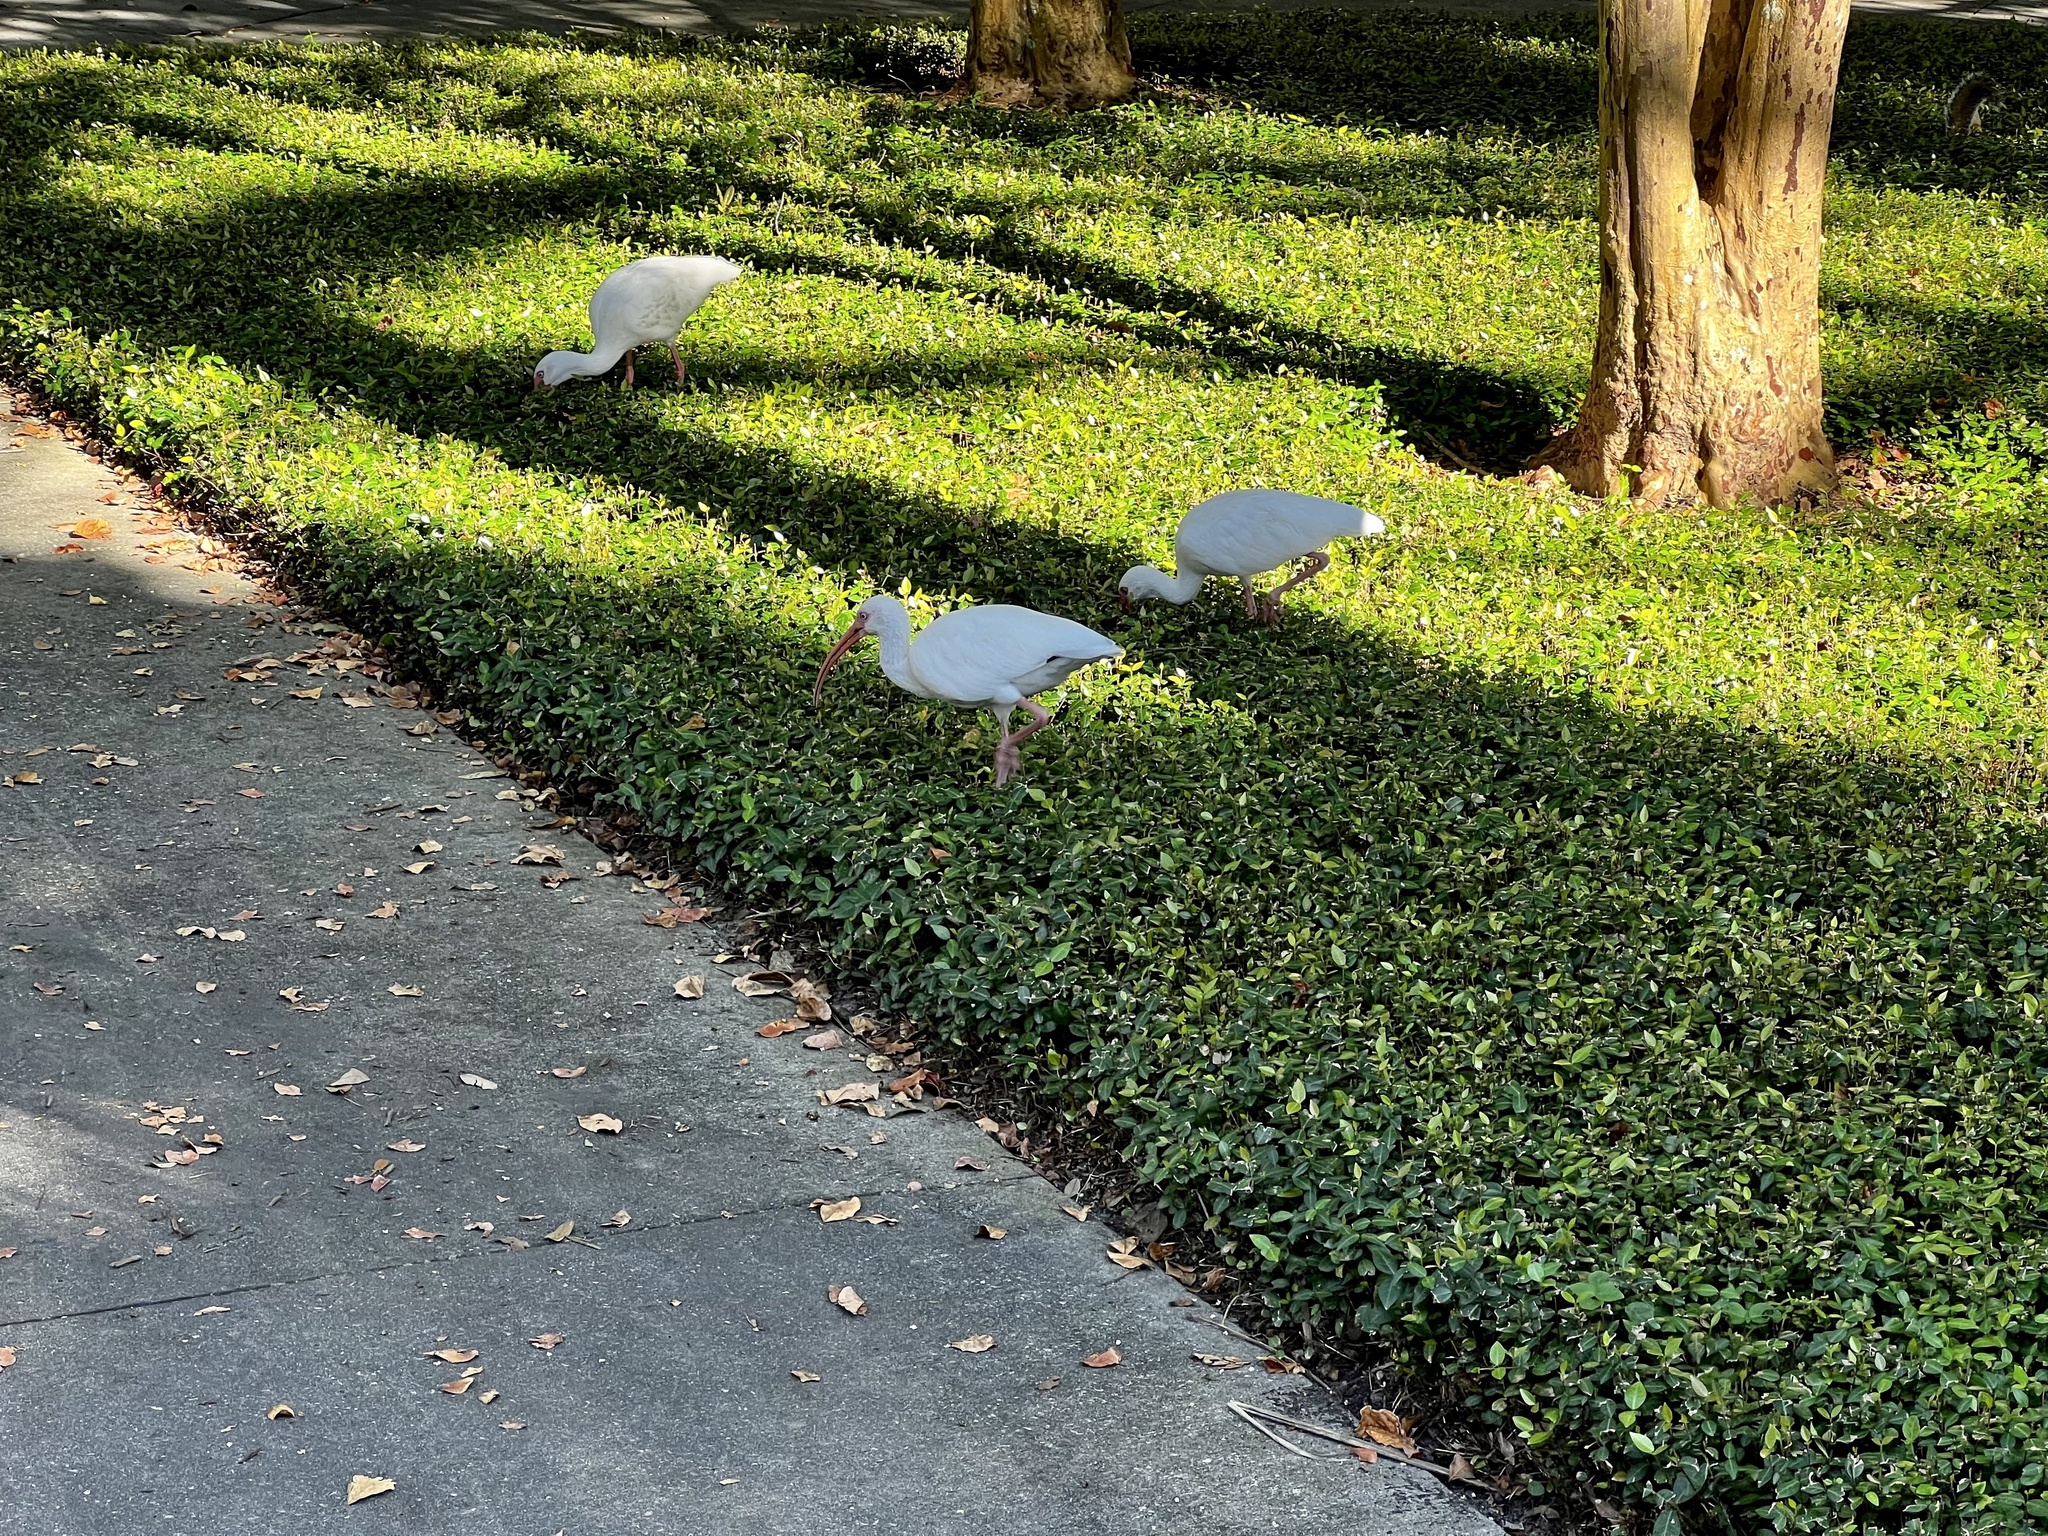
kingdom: Animalia
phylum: Chordata
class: Aves
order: Pelecaniformes
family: Threskiornithidae
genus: Eudocimus
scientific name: Eudocimus albus
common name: White ibis
